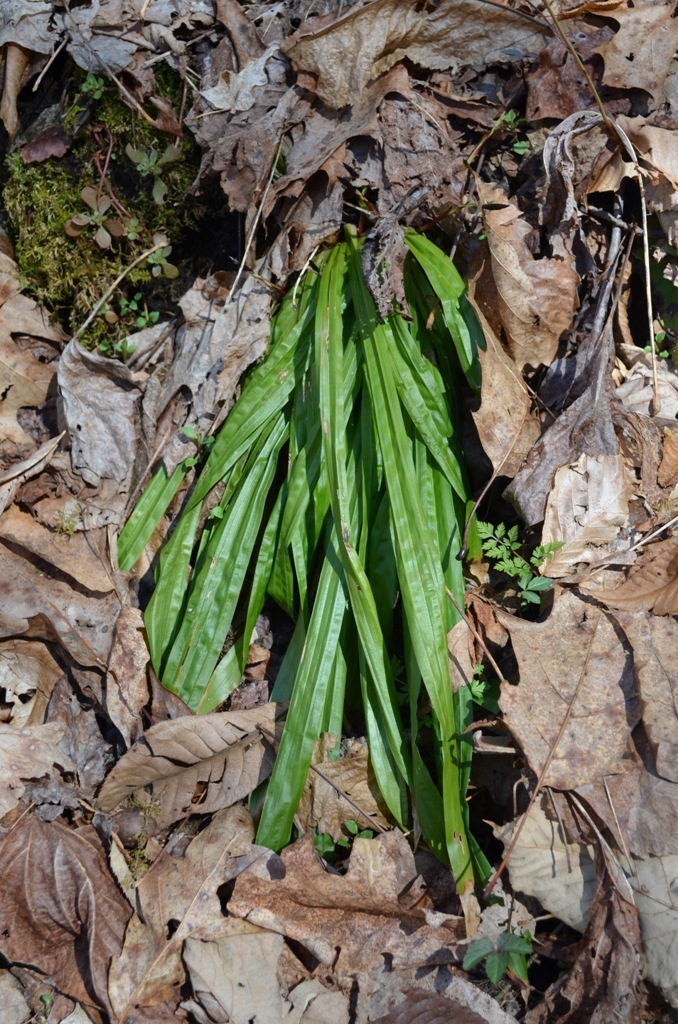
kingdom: Plantae
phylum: Tracheophyta
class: Liliopsida
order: Poales
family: Cyperaceae
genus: Carex
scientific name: Carex plantaginea
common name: Plantain-leaved sedge
